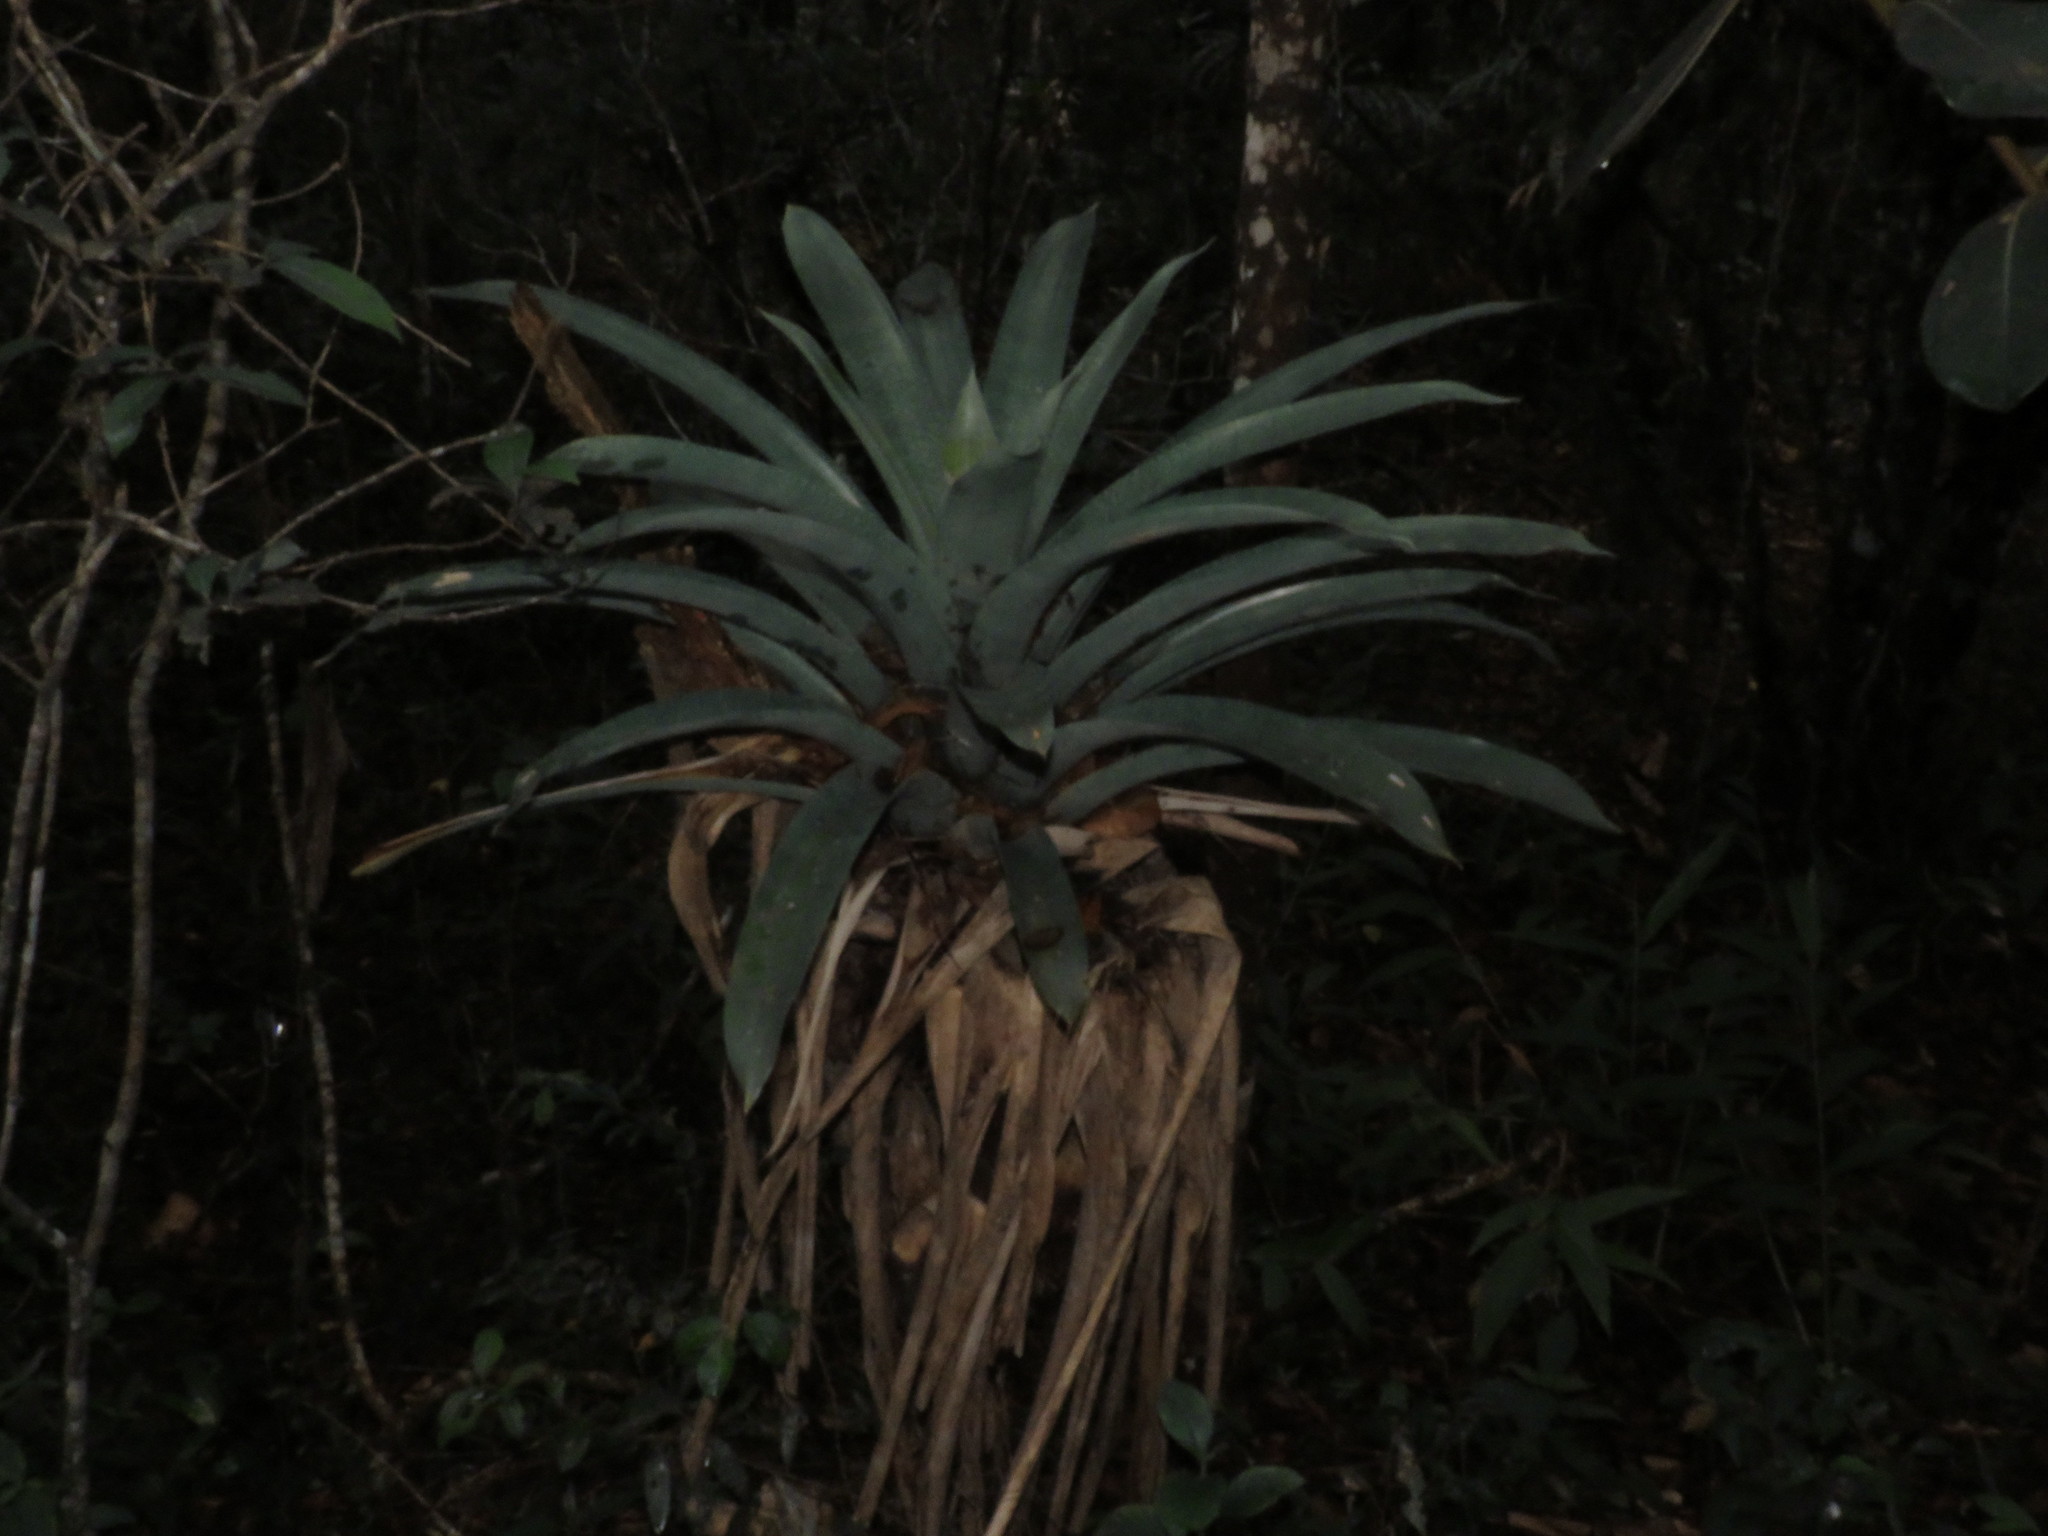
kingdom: Plantae
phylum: Tracheophyta
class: Liliopsida
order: Poales
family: Bromeliaceae
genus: Vriesea
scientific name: Vriesea gigantea
